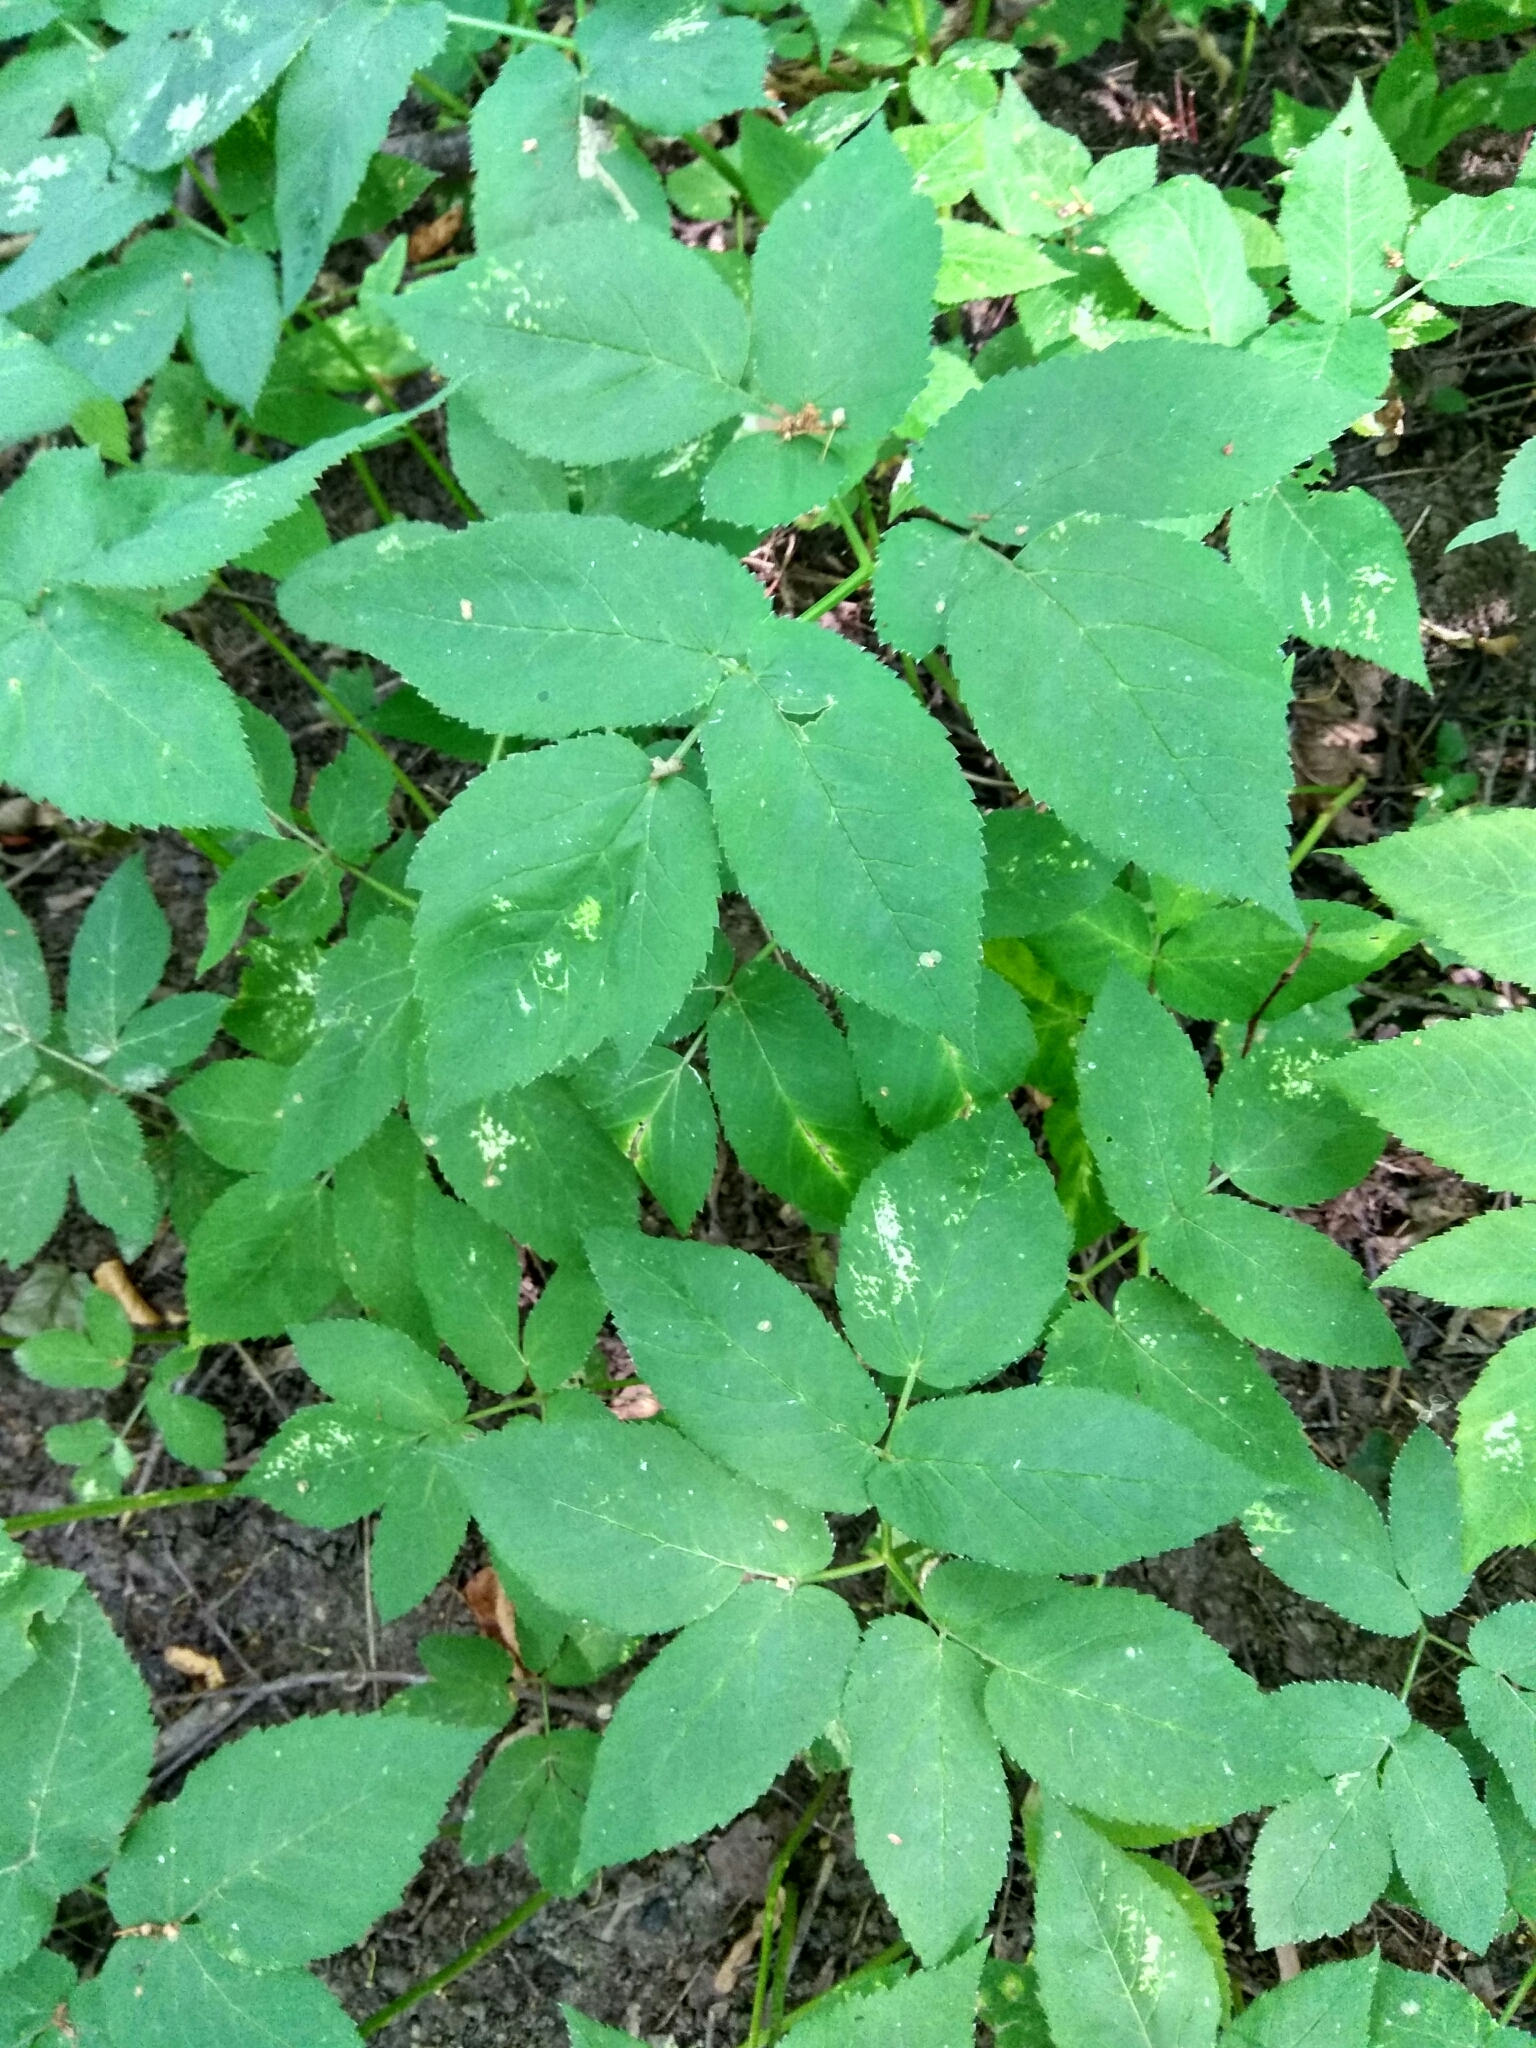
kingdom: Plantae
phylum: Tracheophyta
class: Magnoliopsida
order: Apiales
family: Apiaceae
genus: Aegopodium
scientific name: Aegopodium podagraria
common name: Ground-elder
